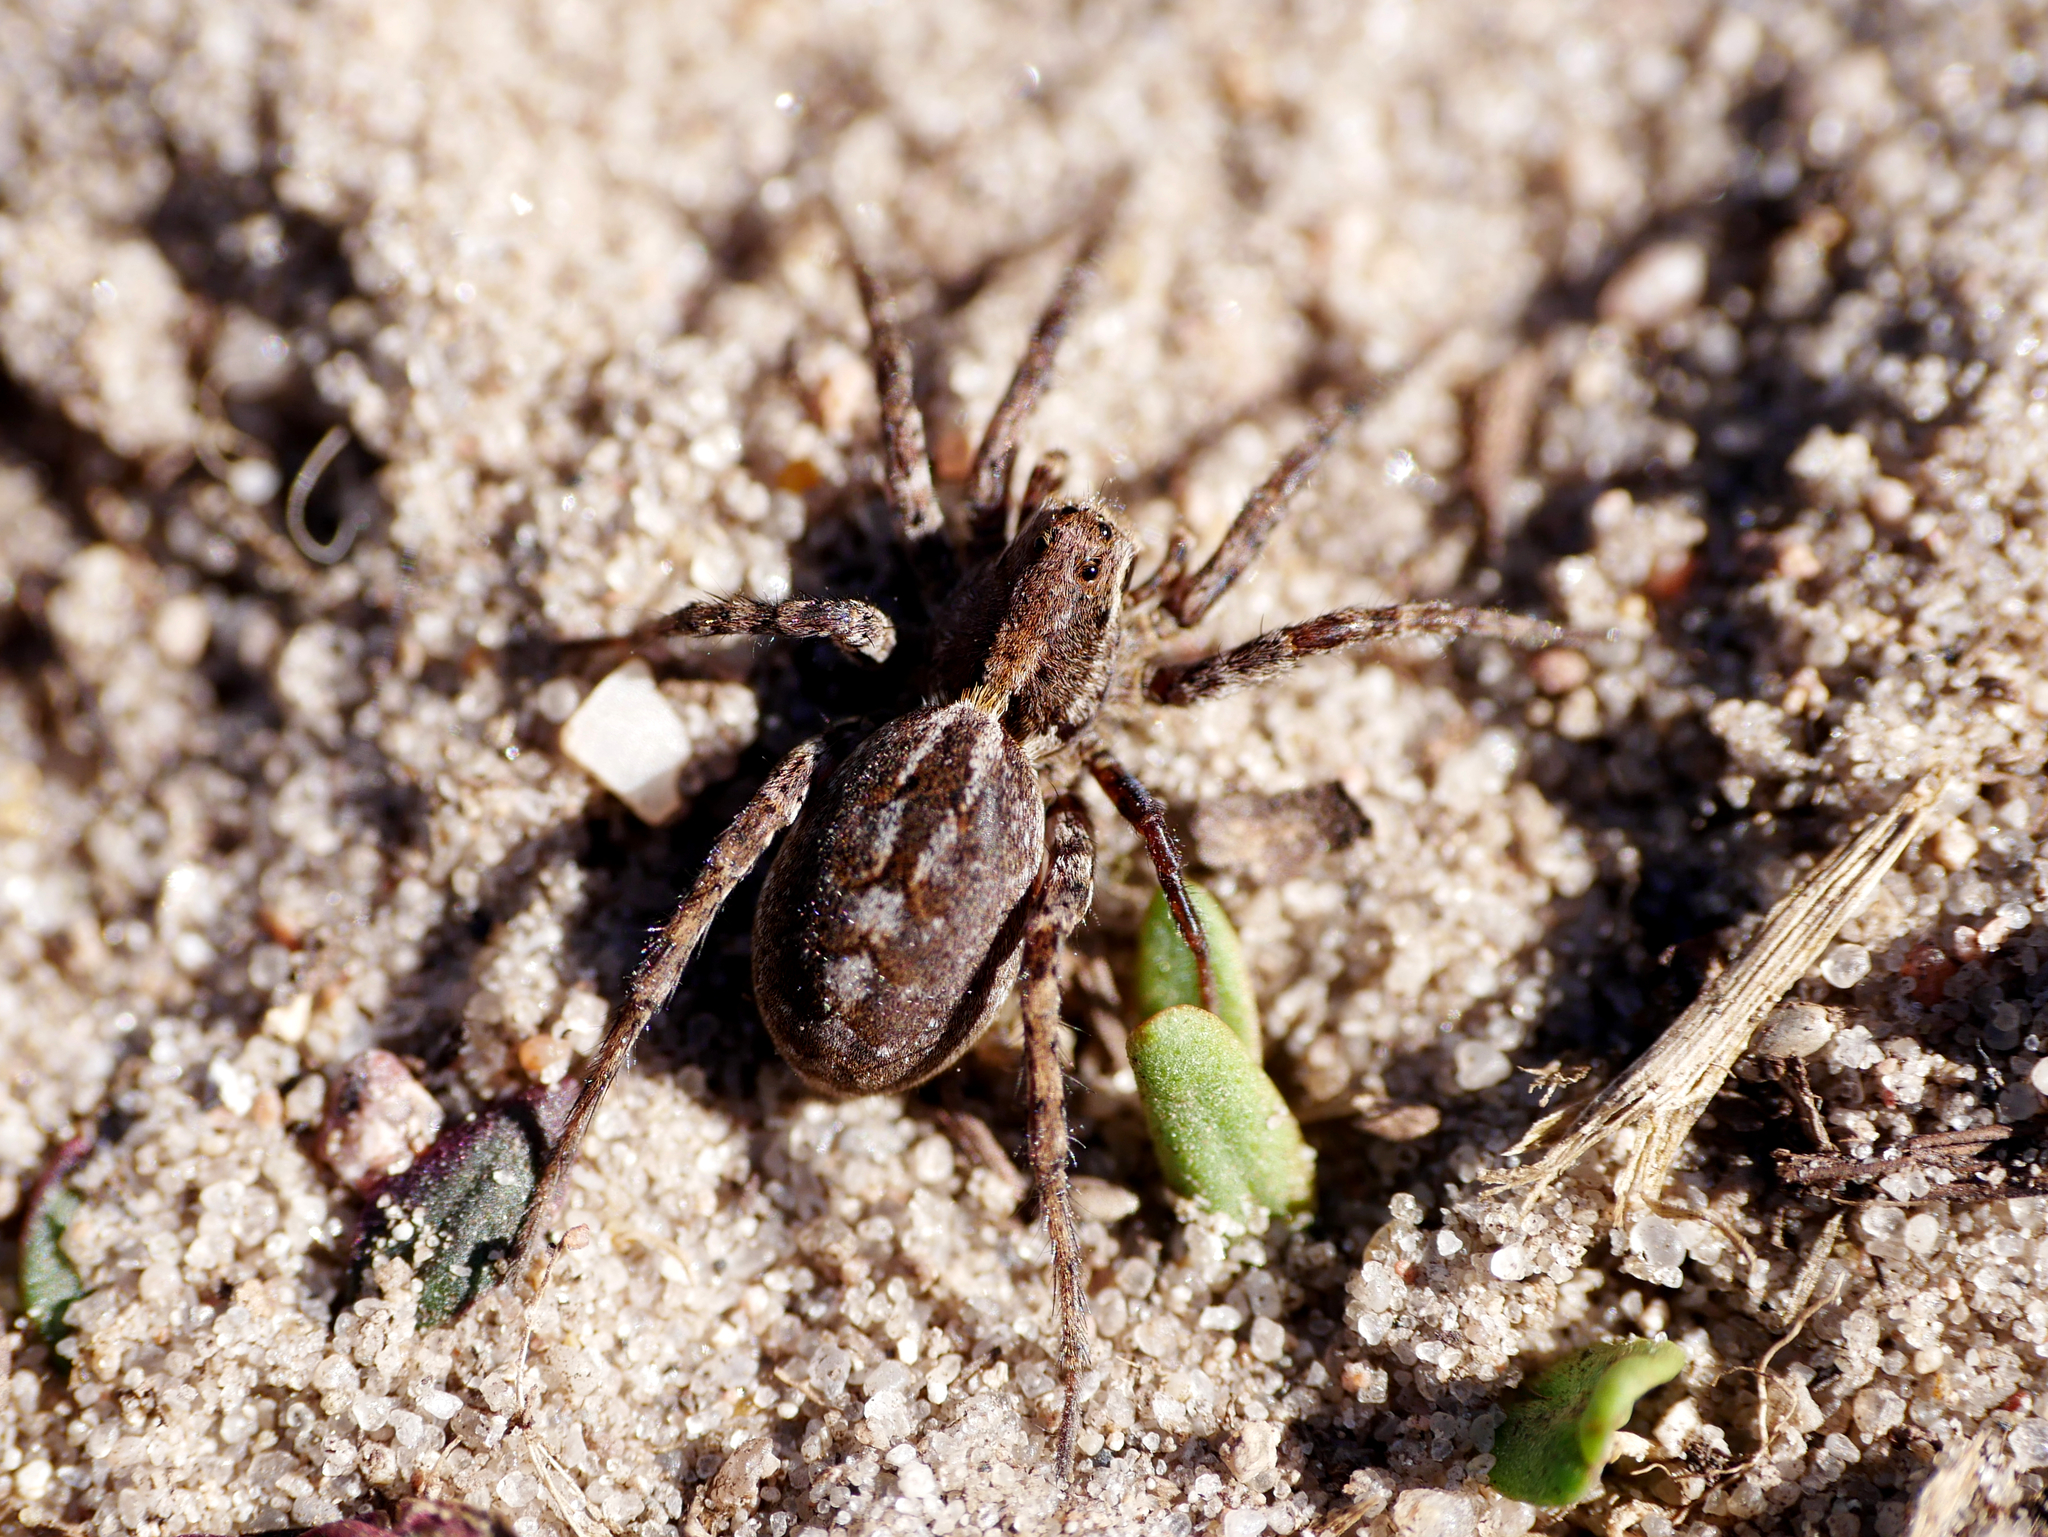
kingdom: Animalia
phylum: Arthropoda
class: Arachnida
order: Araneae
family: Lycosidae
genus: Alopecosa
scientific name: Alopecosa barbipes
